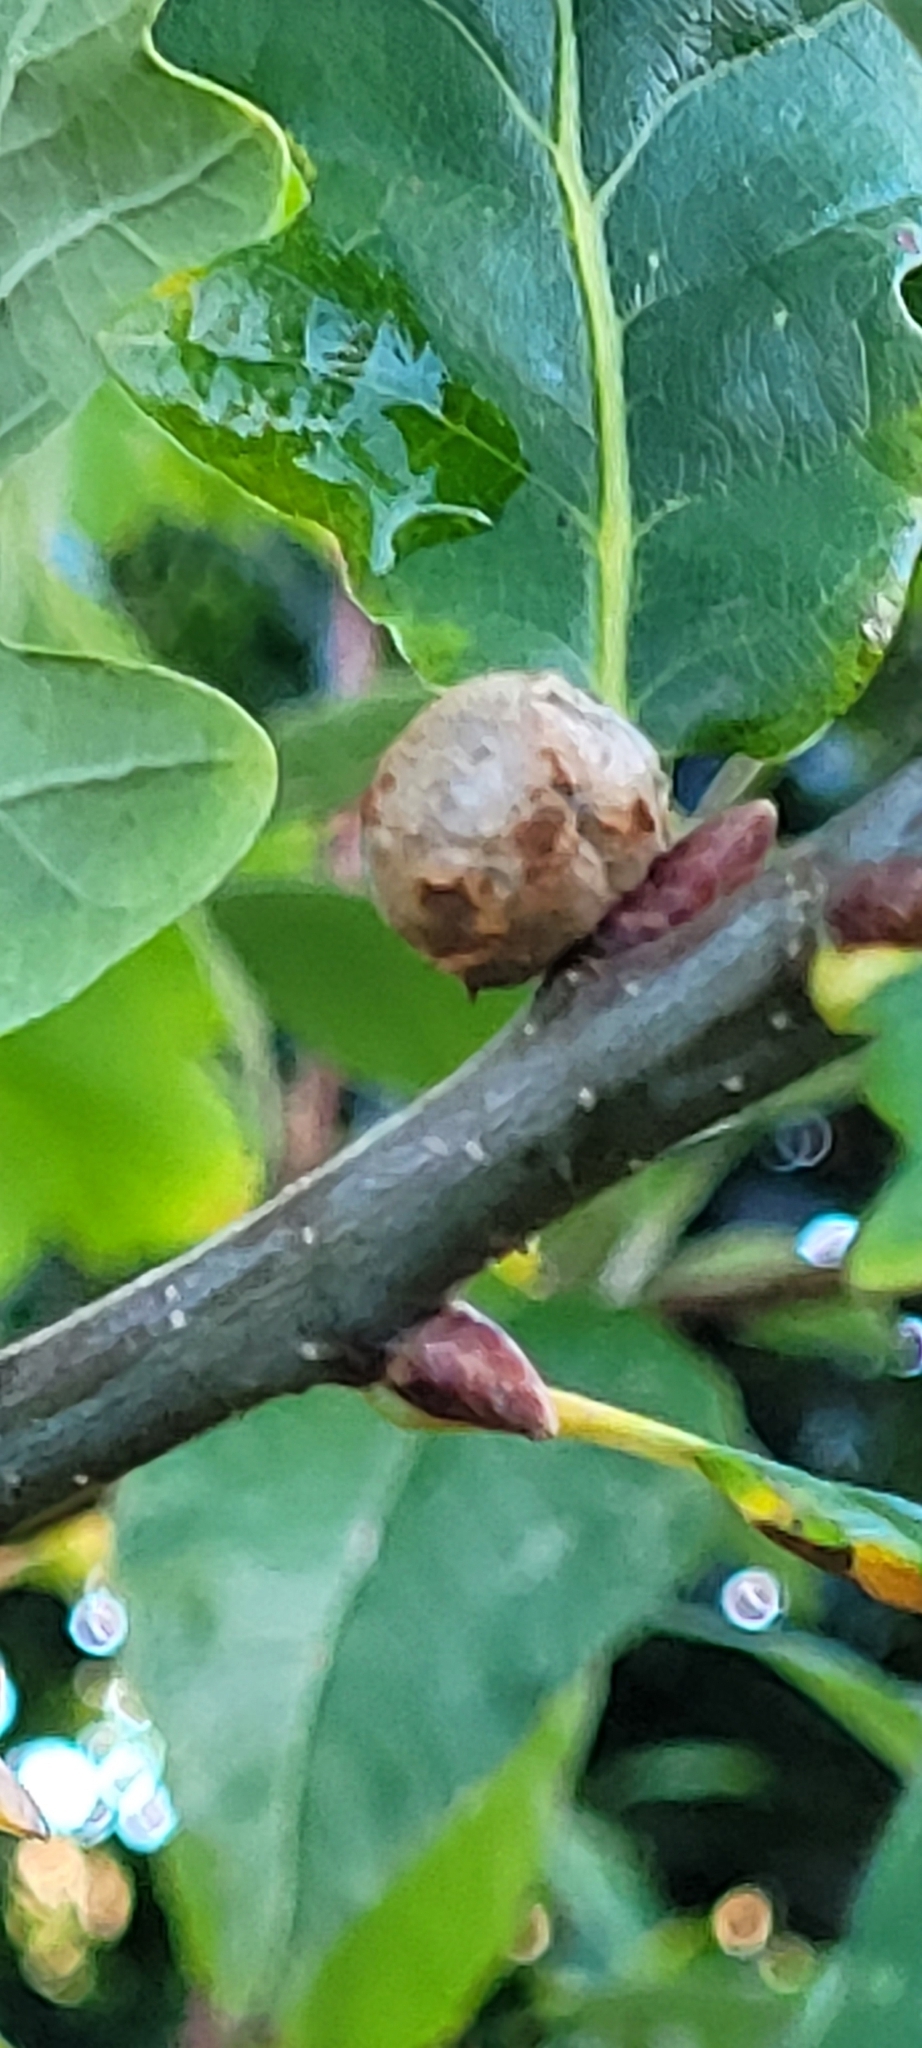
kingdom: Animalia
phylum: Arthropoda
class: Insecta
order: Hymenoptera
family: Cynipidae
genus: Andricus
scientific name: Andricus lignicolus
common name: Cola-nut gall
